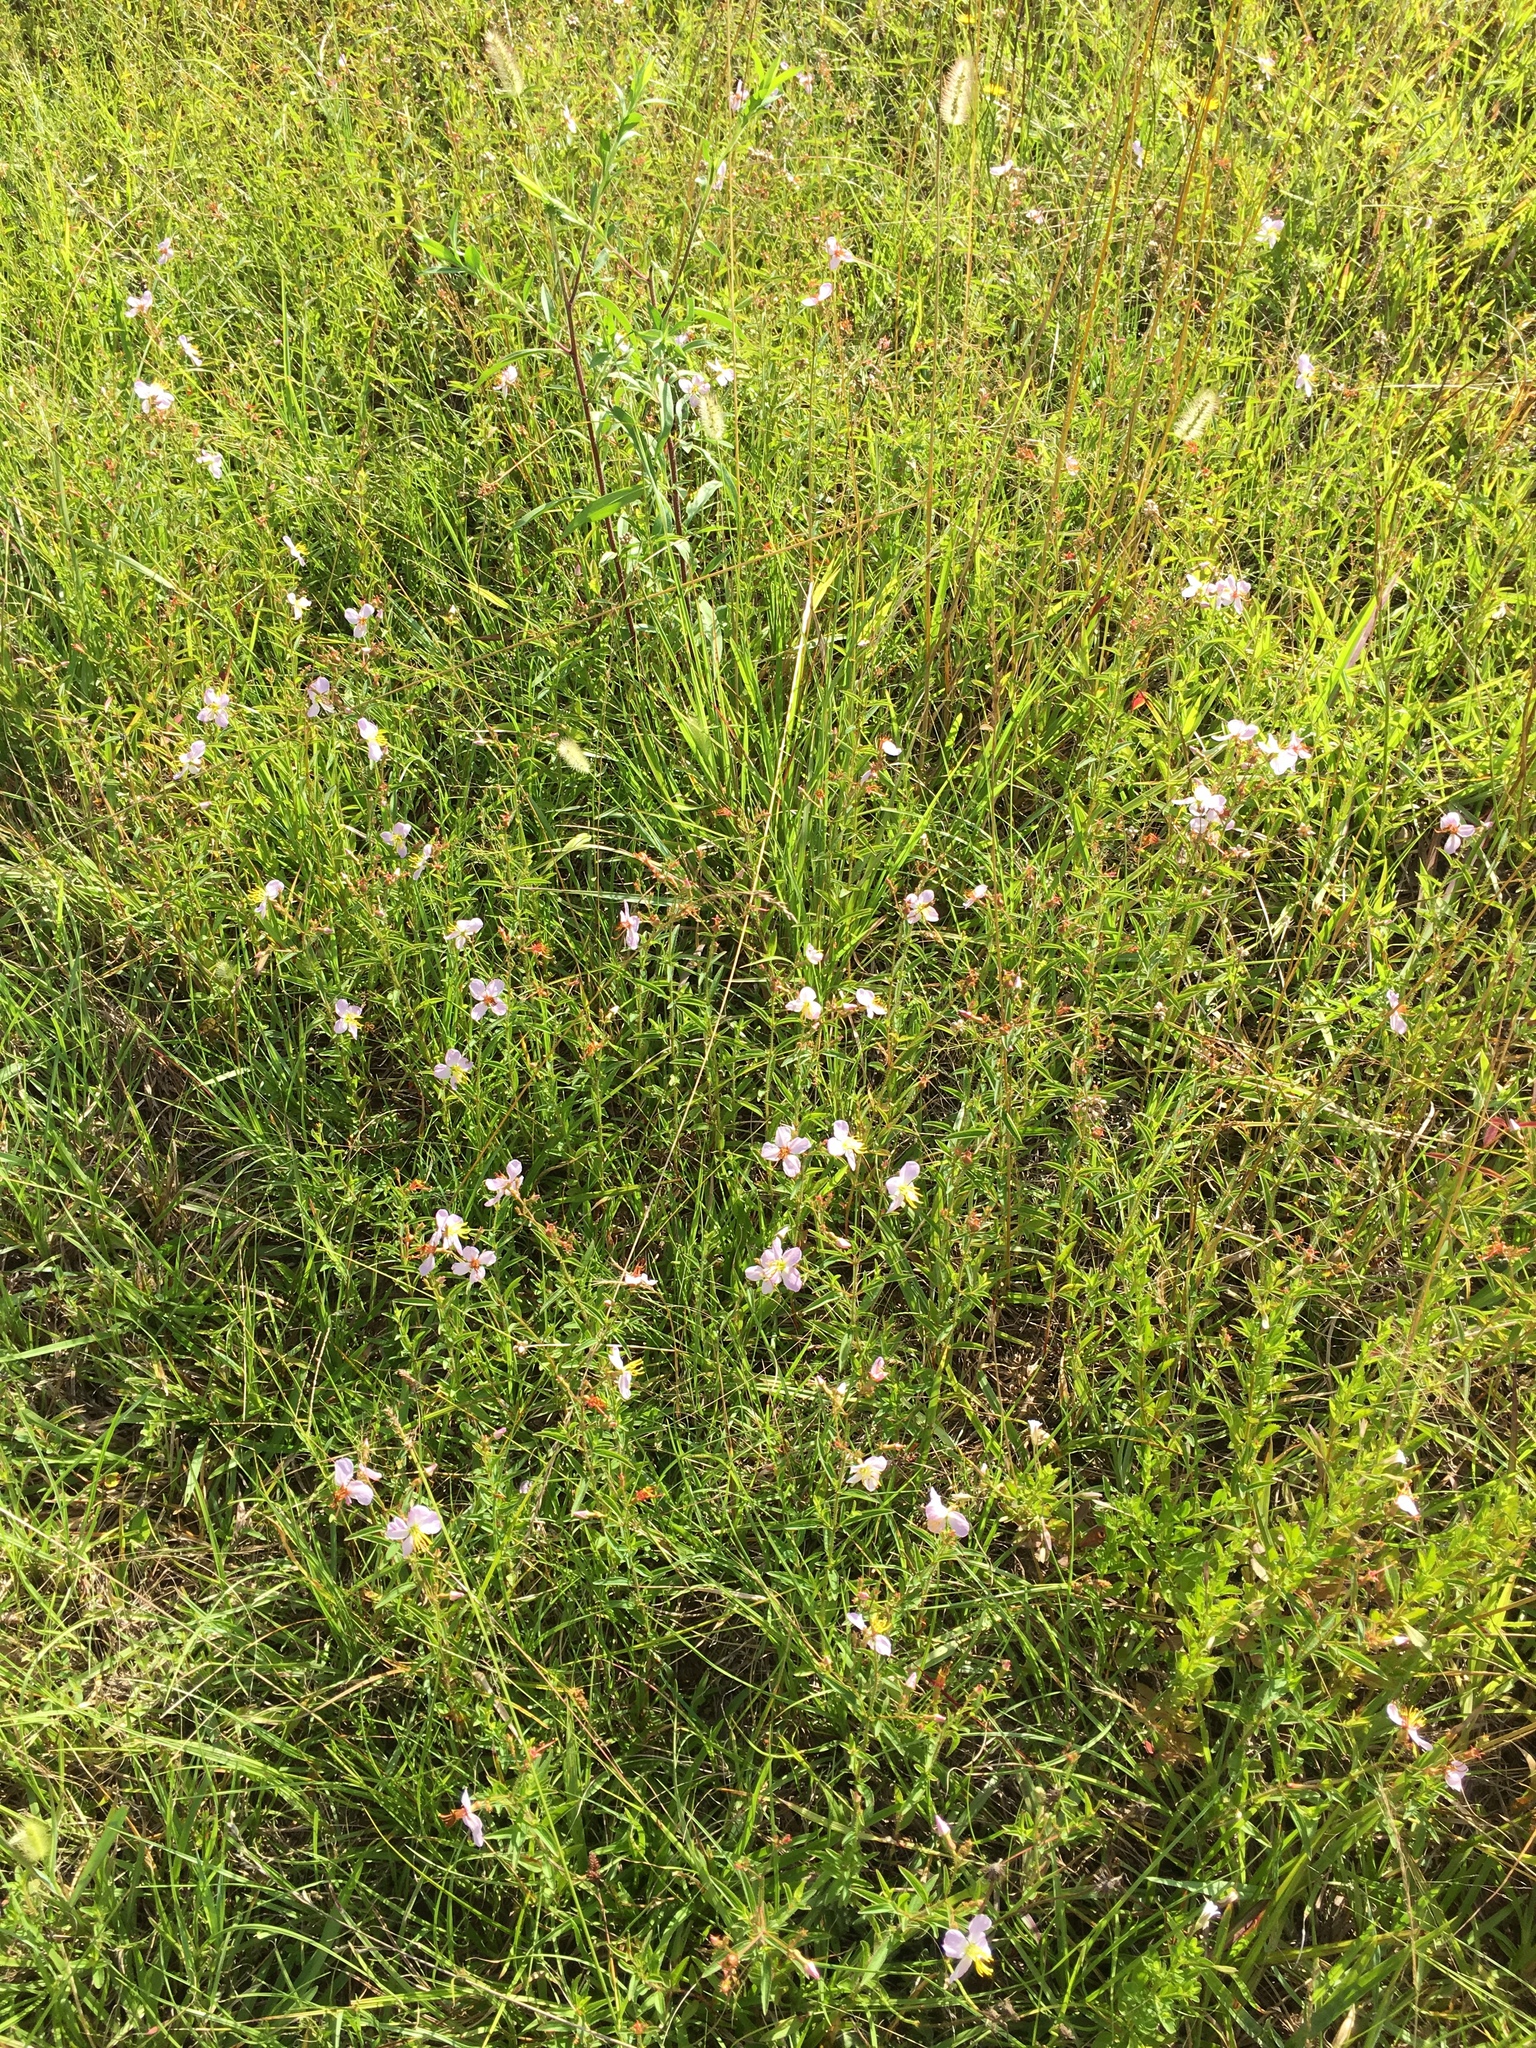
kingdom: Plantae
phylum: Tracheophyta
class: Magnoliopsida
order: Myrtales
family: Melastomataceae
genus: Rhexia
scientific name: Rhexia mariana
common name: Dull meadow-pitcher
